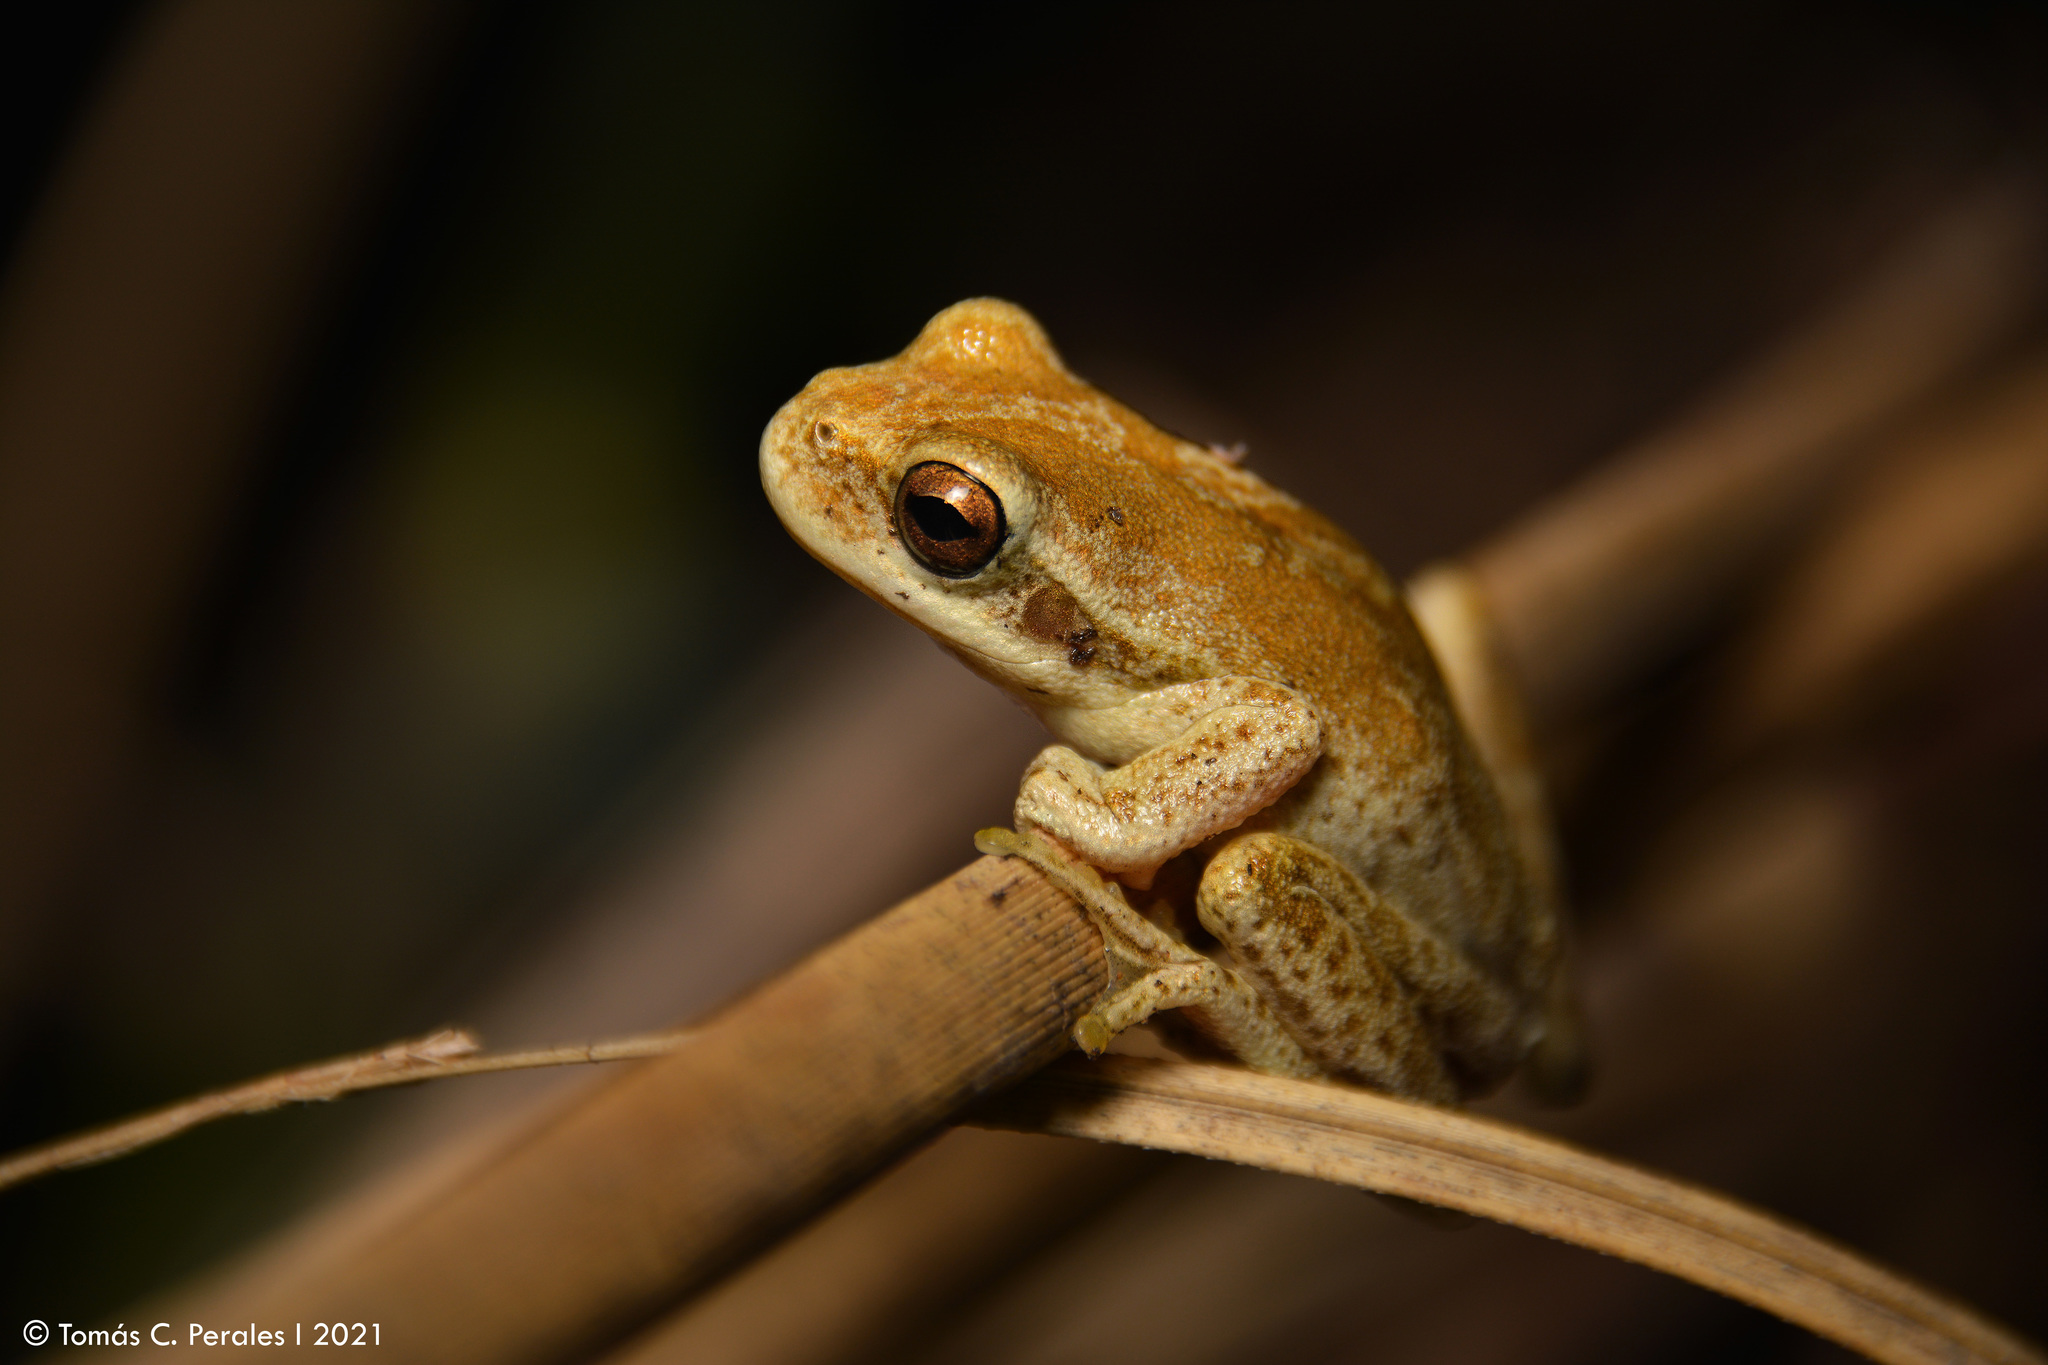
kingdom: Animalia
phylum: Chordata
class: Amphibia
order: Anura
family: Hylidae
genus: Boana
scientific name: Boana cordobae
